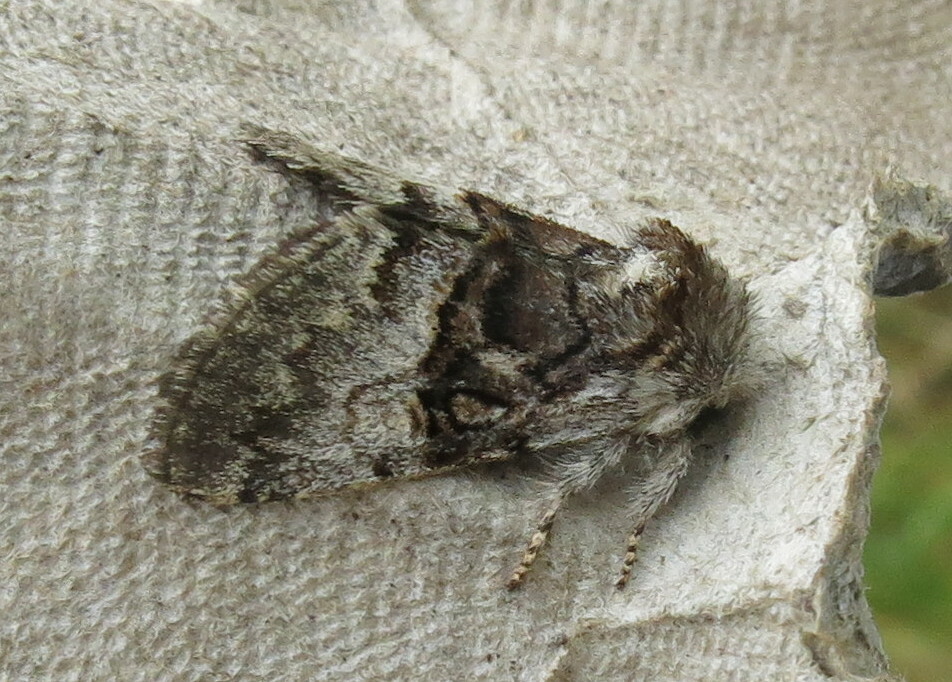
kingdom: Animalia
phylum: Arthropoda
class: Insecta
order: Lepidoptera
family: Noctuidae
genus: Colocasia
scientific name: Colocasia coryli
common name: Nut-tree tussock
